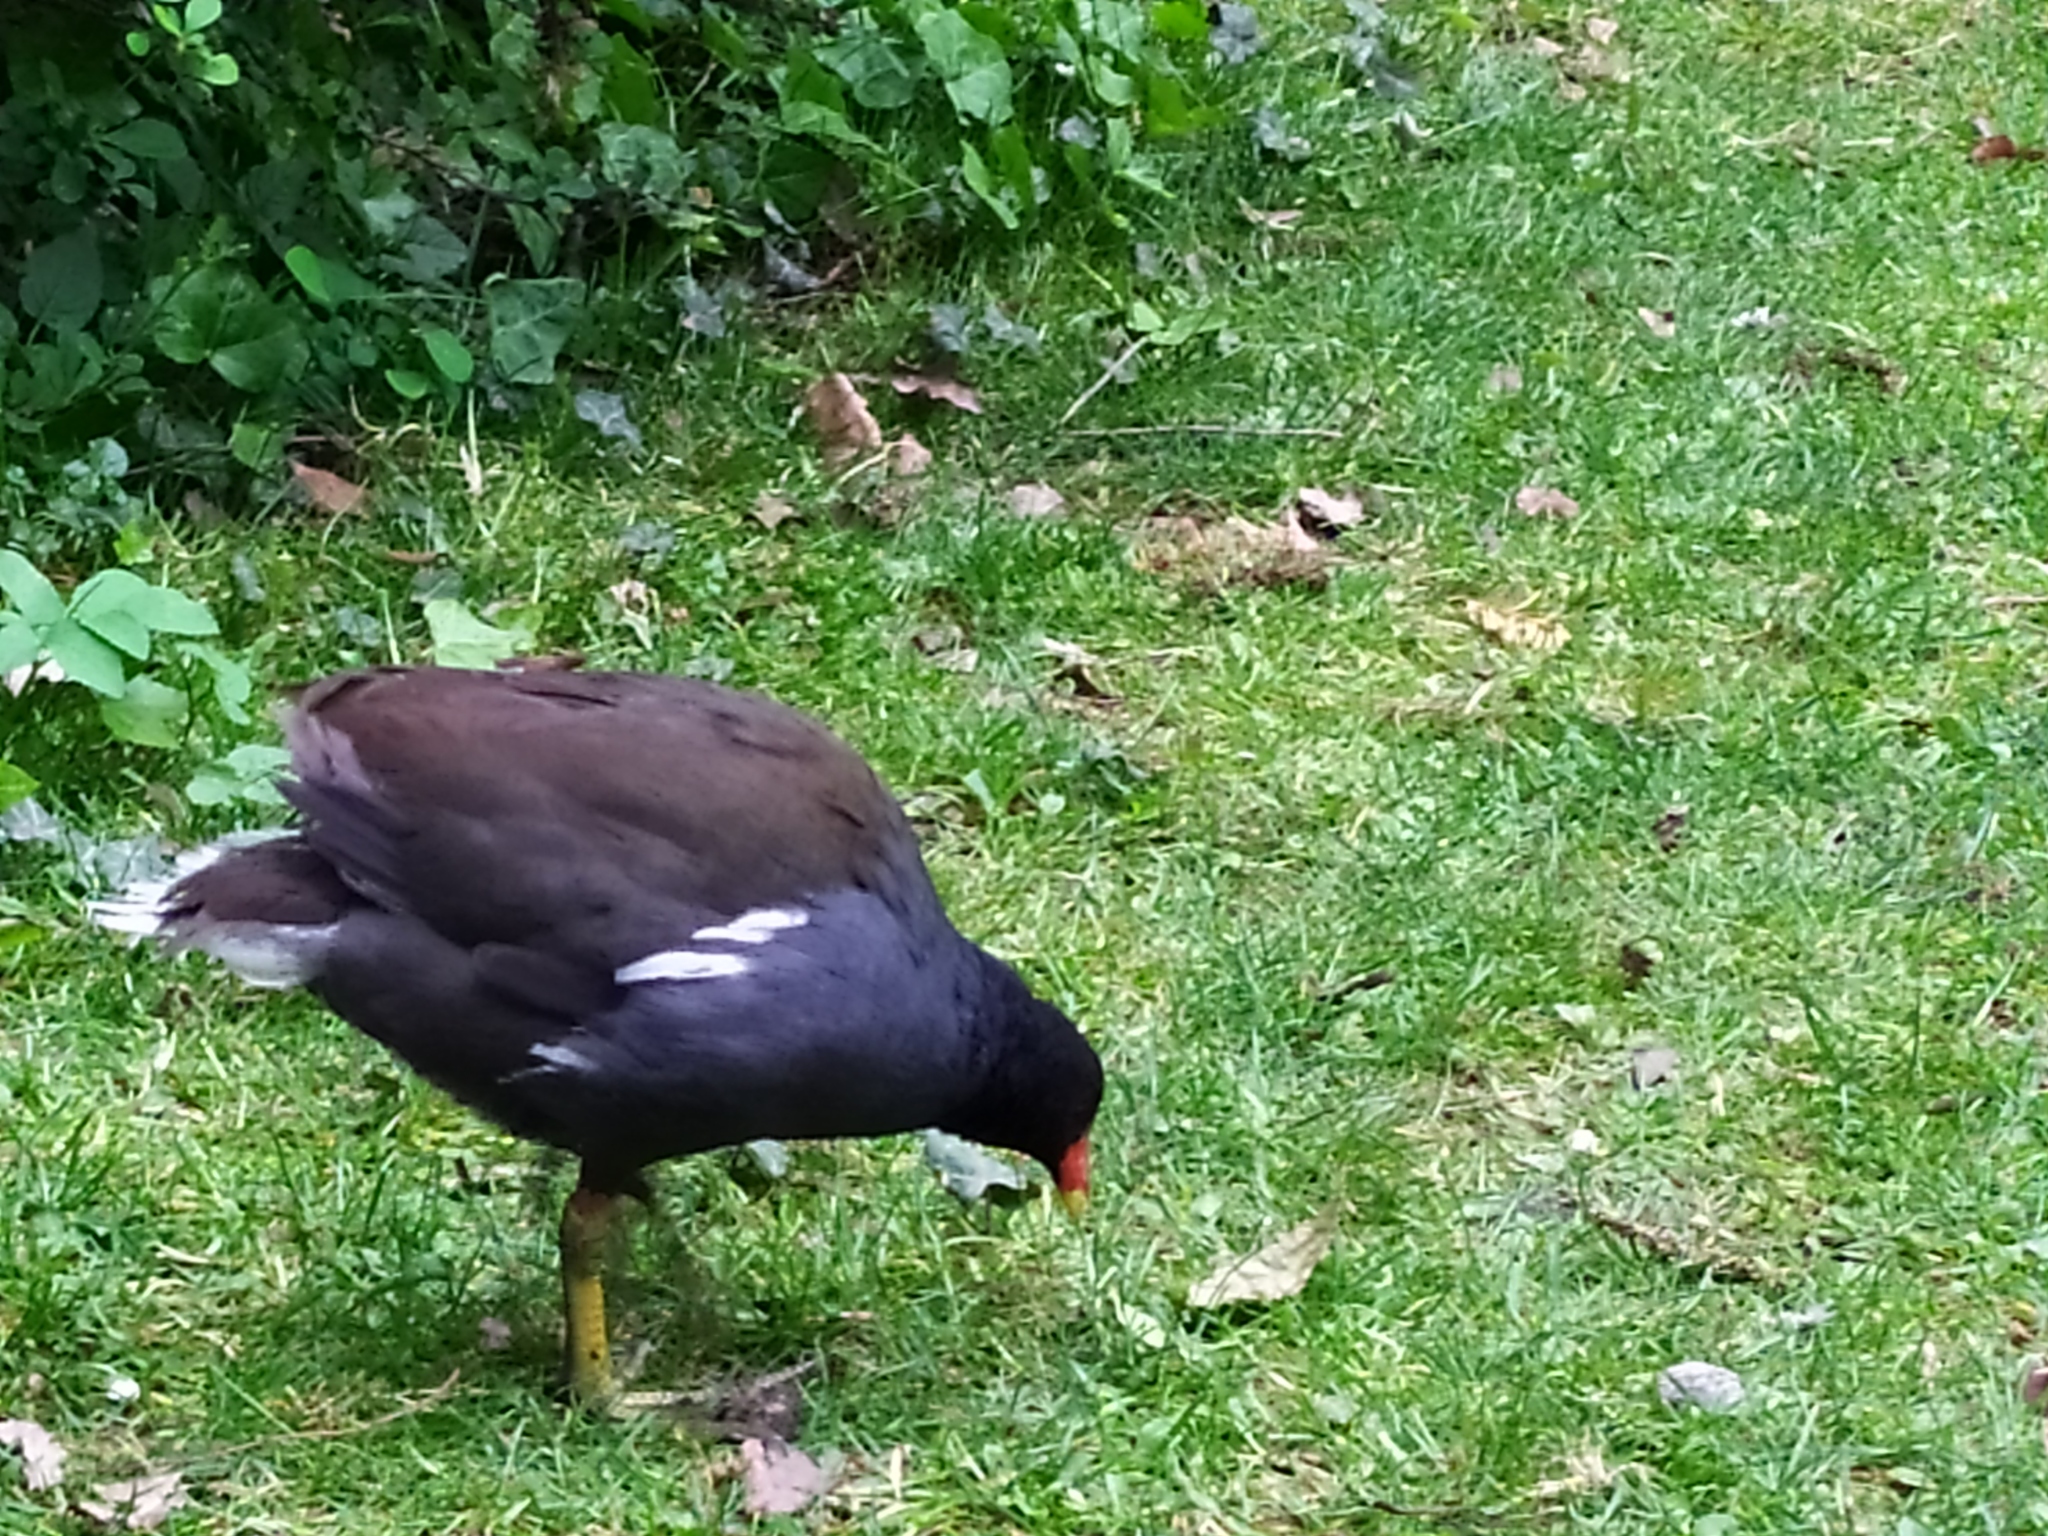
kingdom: Animalia
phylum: Chordata
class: Aves
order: Gruiformes
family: Rallidae
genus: Gallinula
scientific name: Gallinula chloropus
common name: Common moorhen
